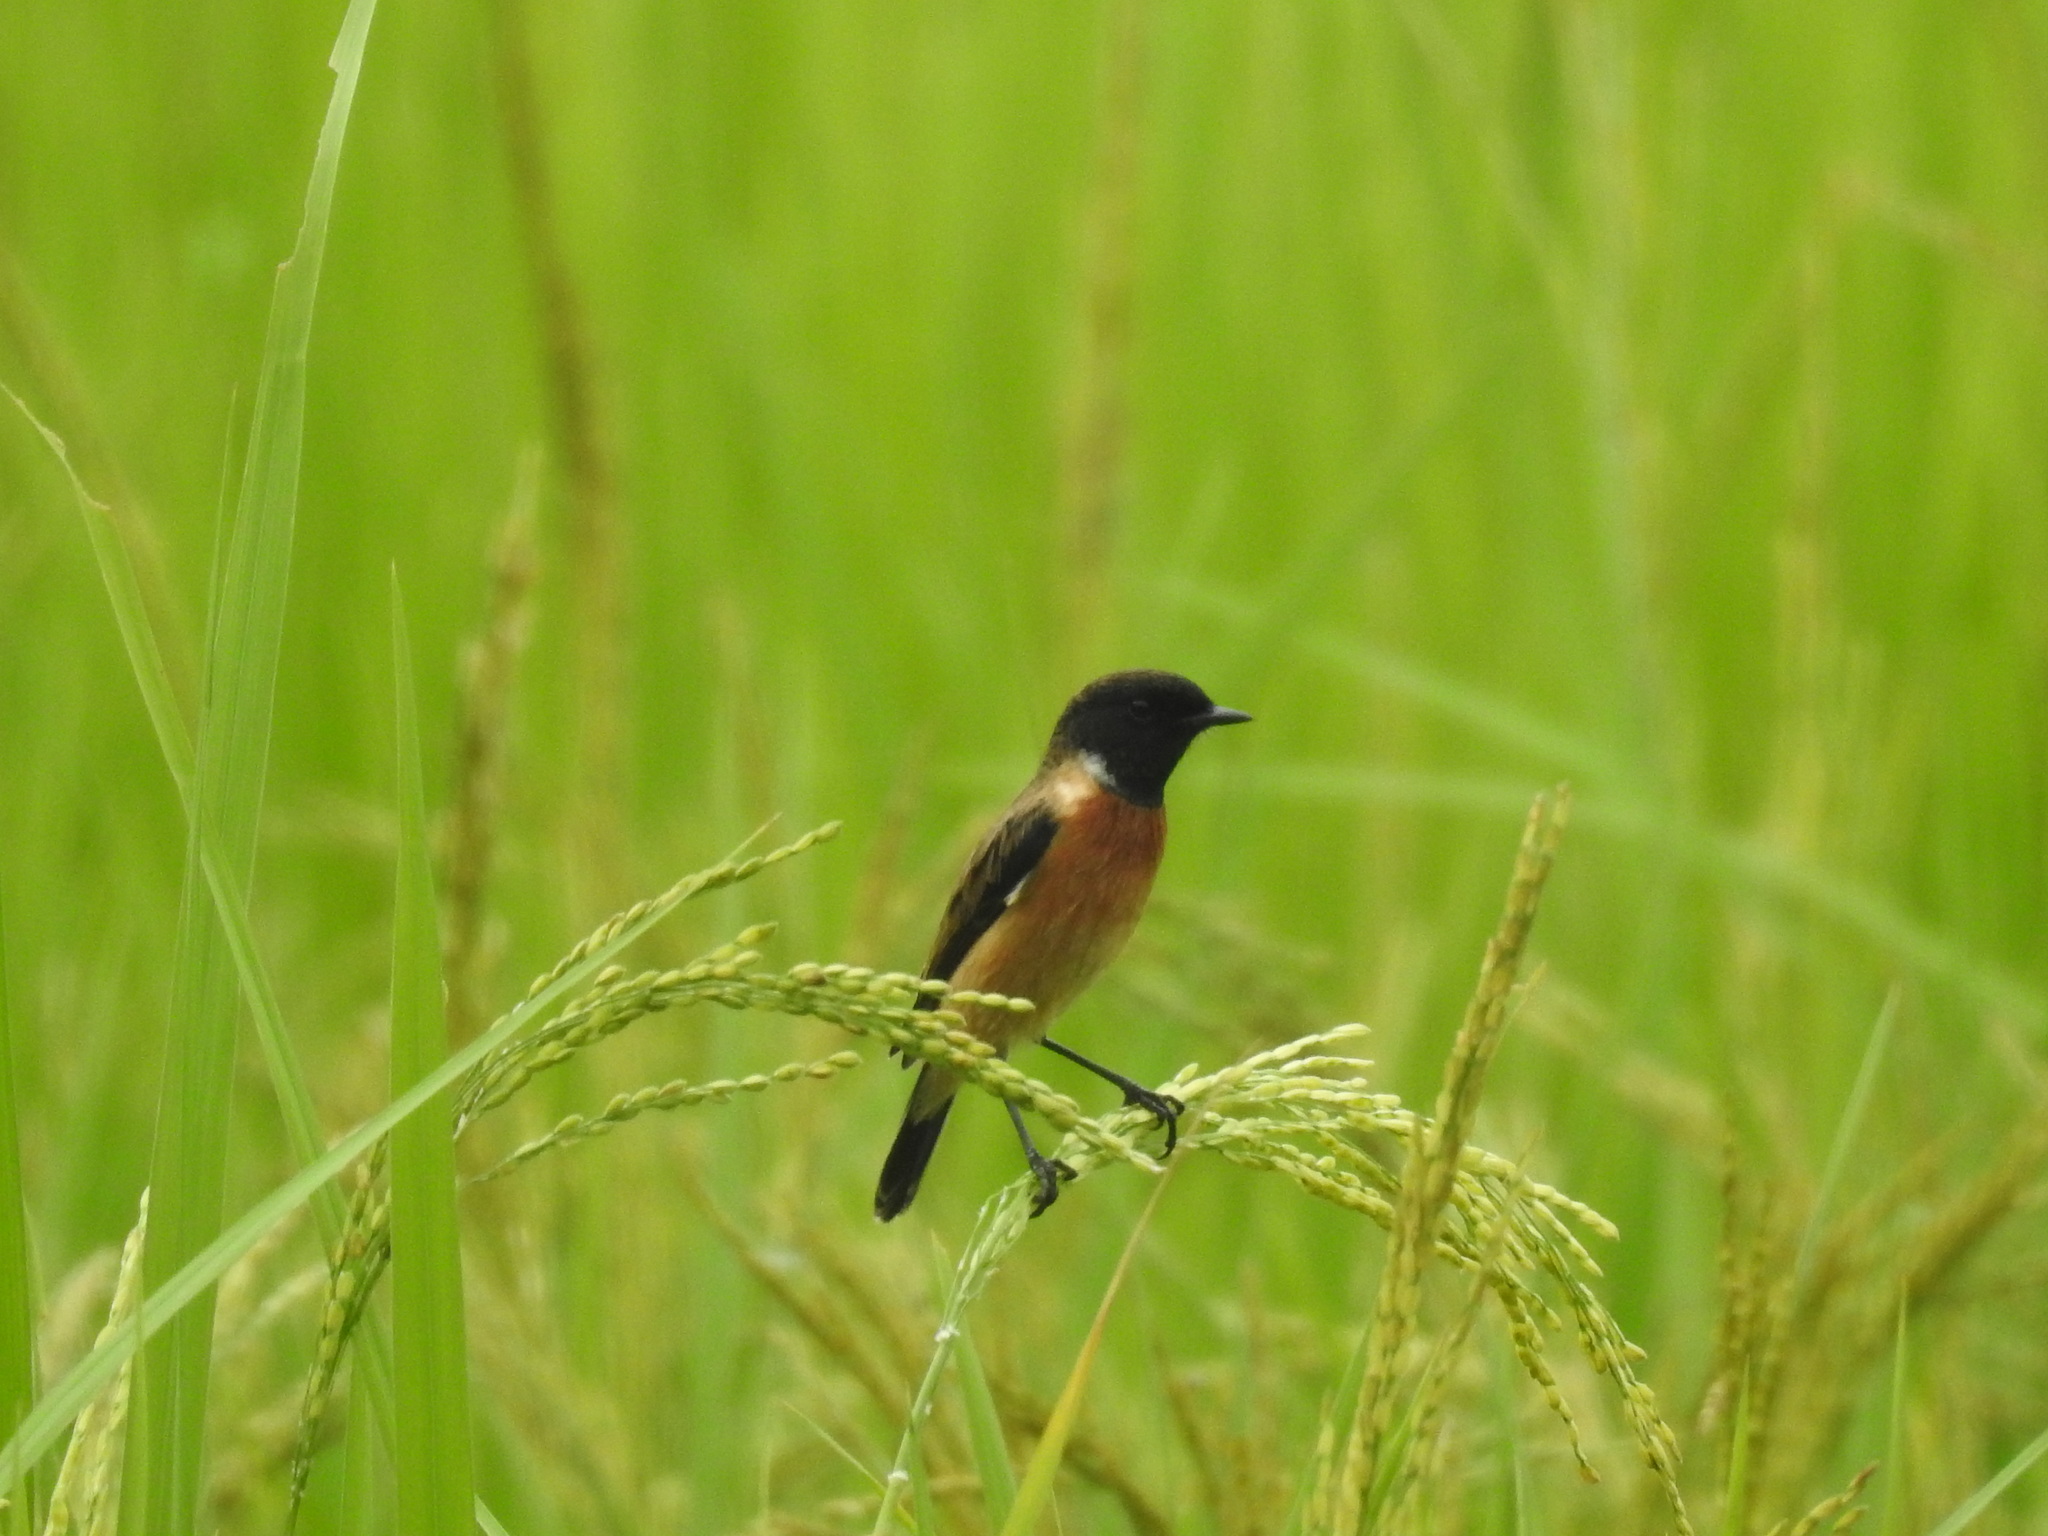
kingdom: Animalia
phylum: Chordata
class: Aves
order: Passeriformes
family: Muscicapidae
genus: Saxicola
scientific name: Saxicola maurus
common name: Siberian stonechat
